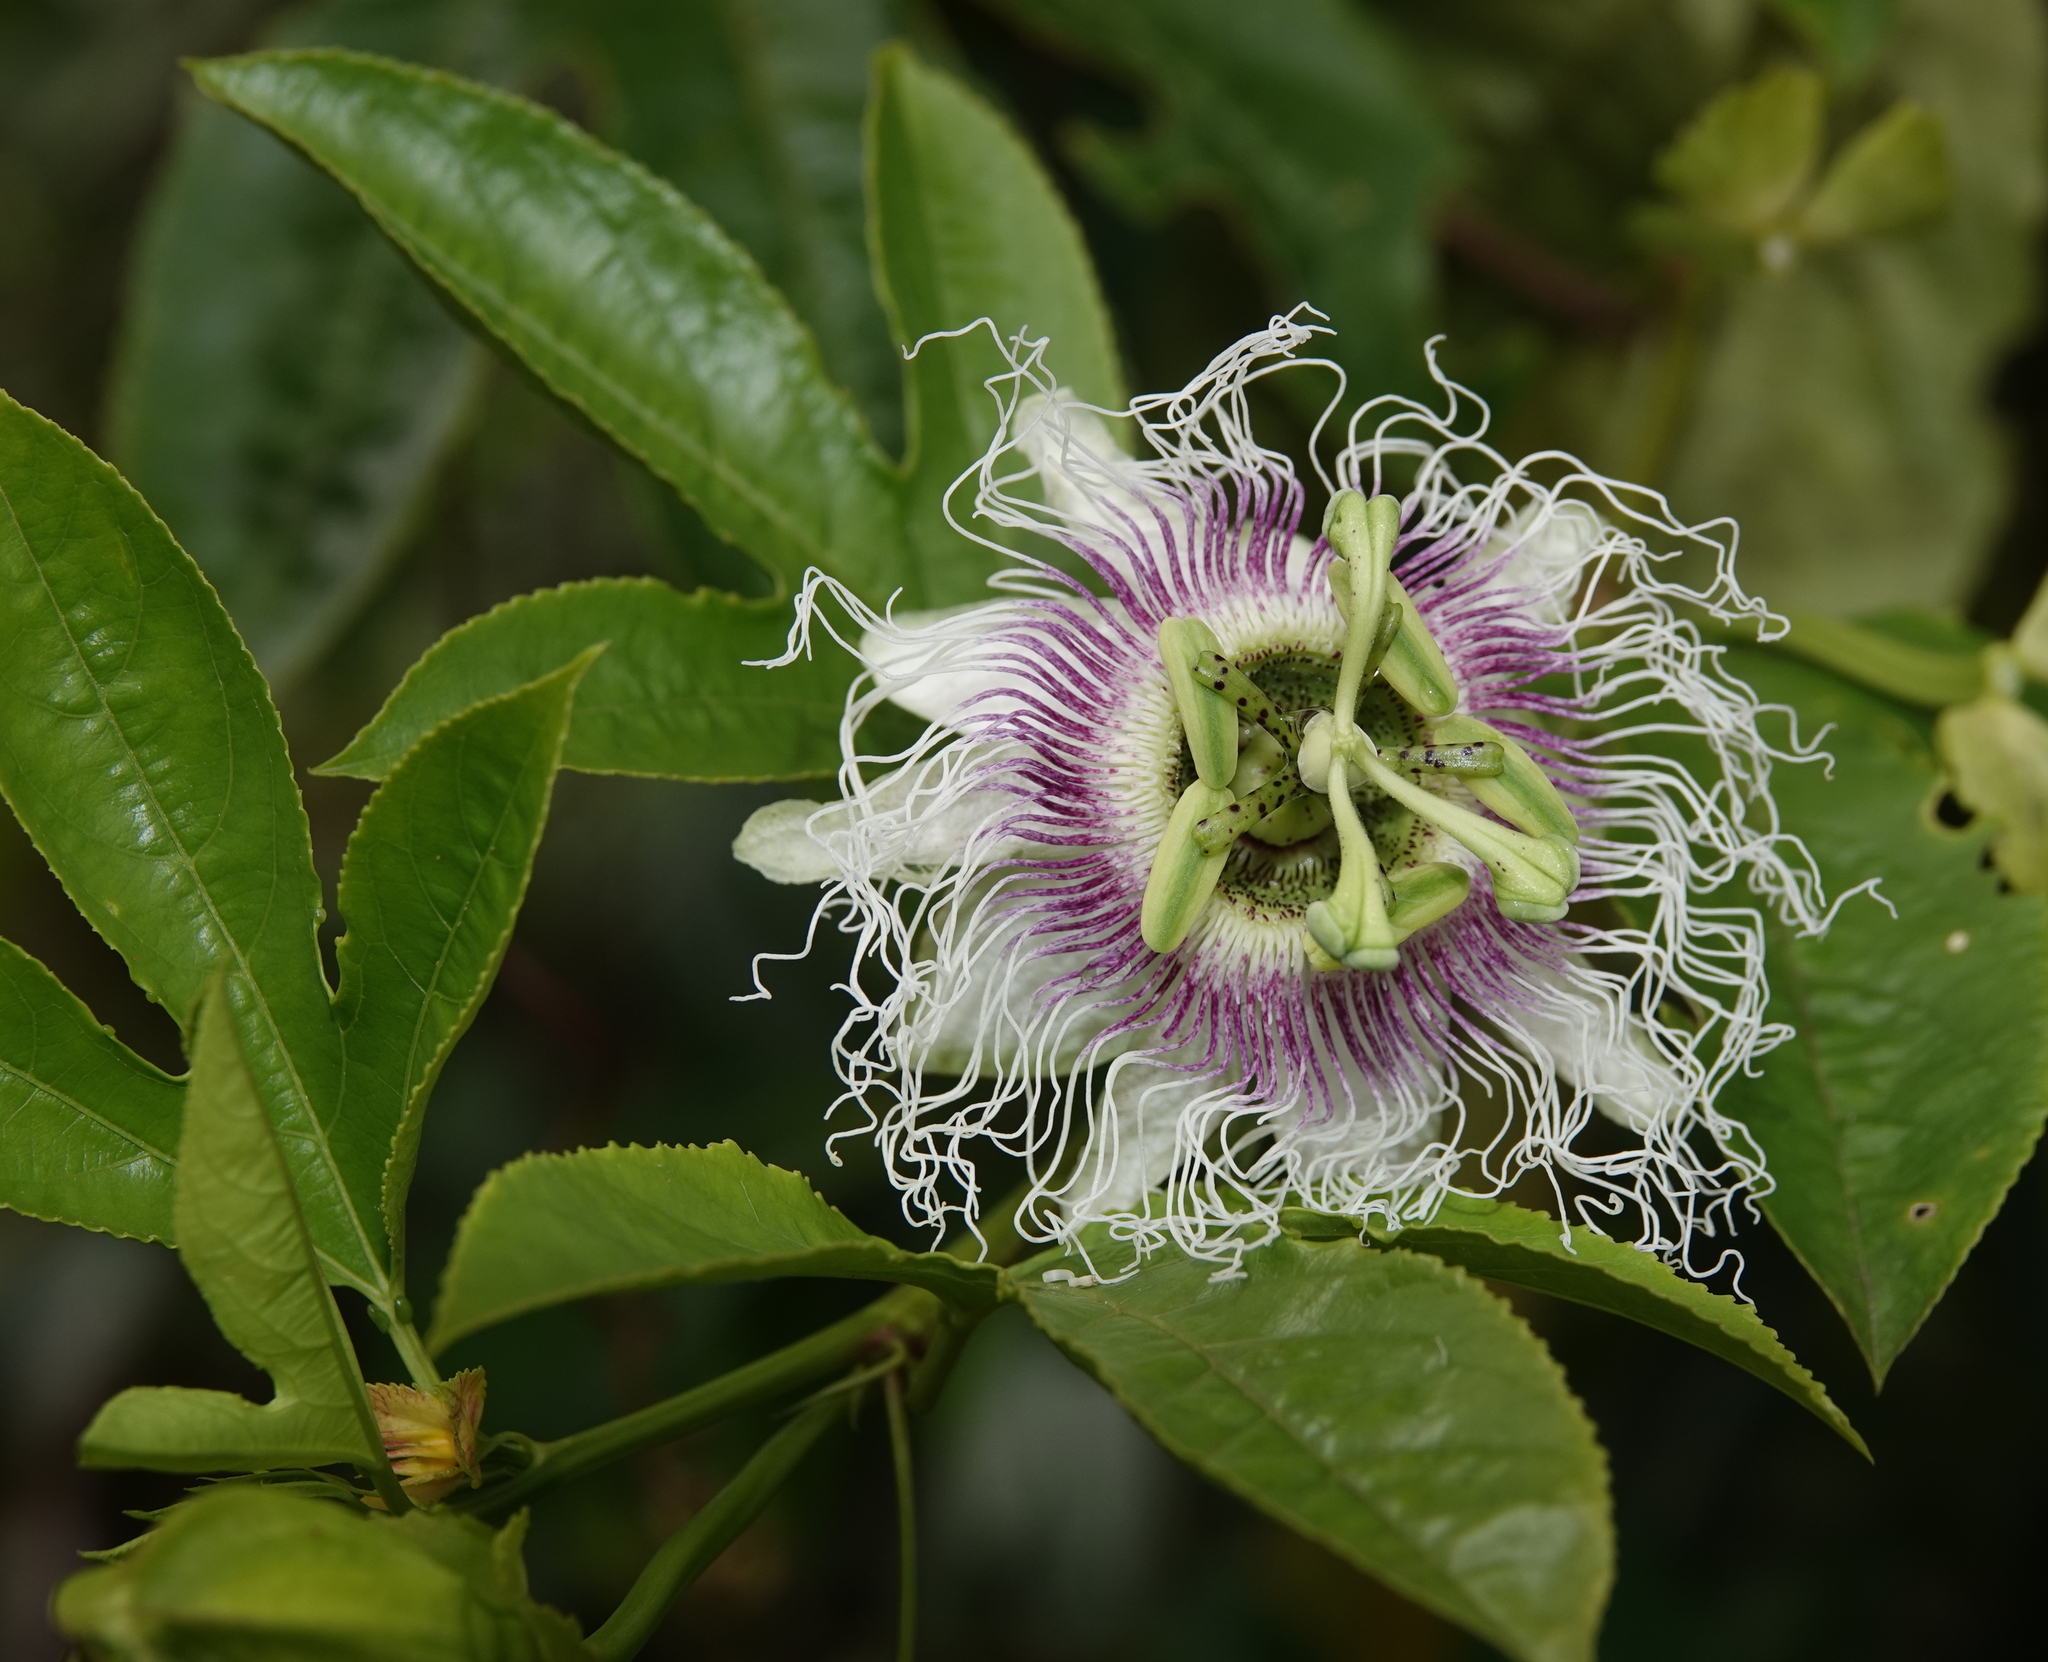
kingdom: Plantae
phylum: Tracheophyta
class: Magnoliopsida
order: Malpighiales
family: Passifloraceae
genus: Passiflora
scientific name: Passiflora edulis
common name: Purple granadilla
